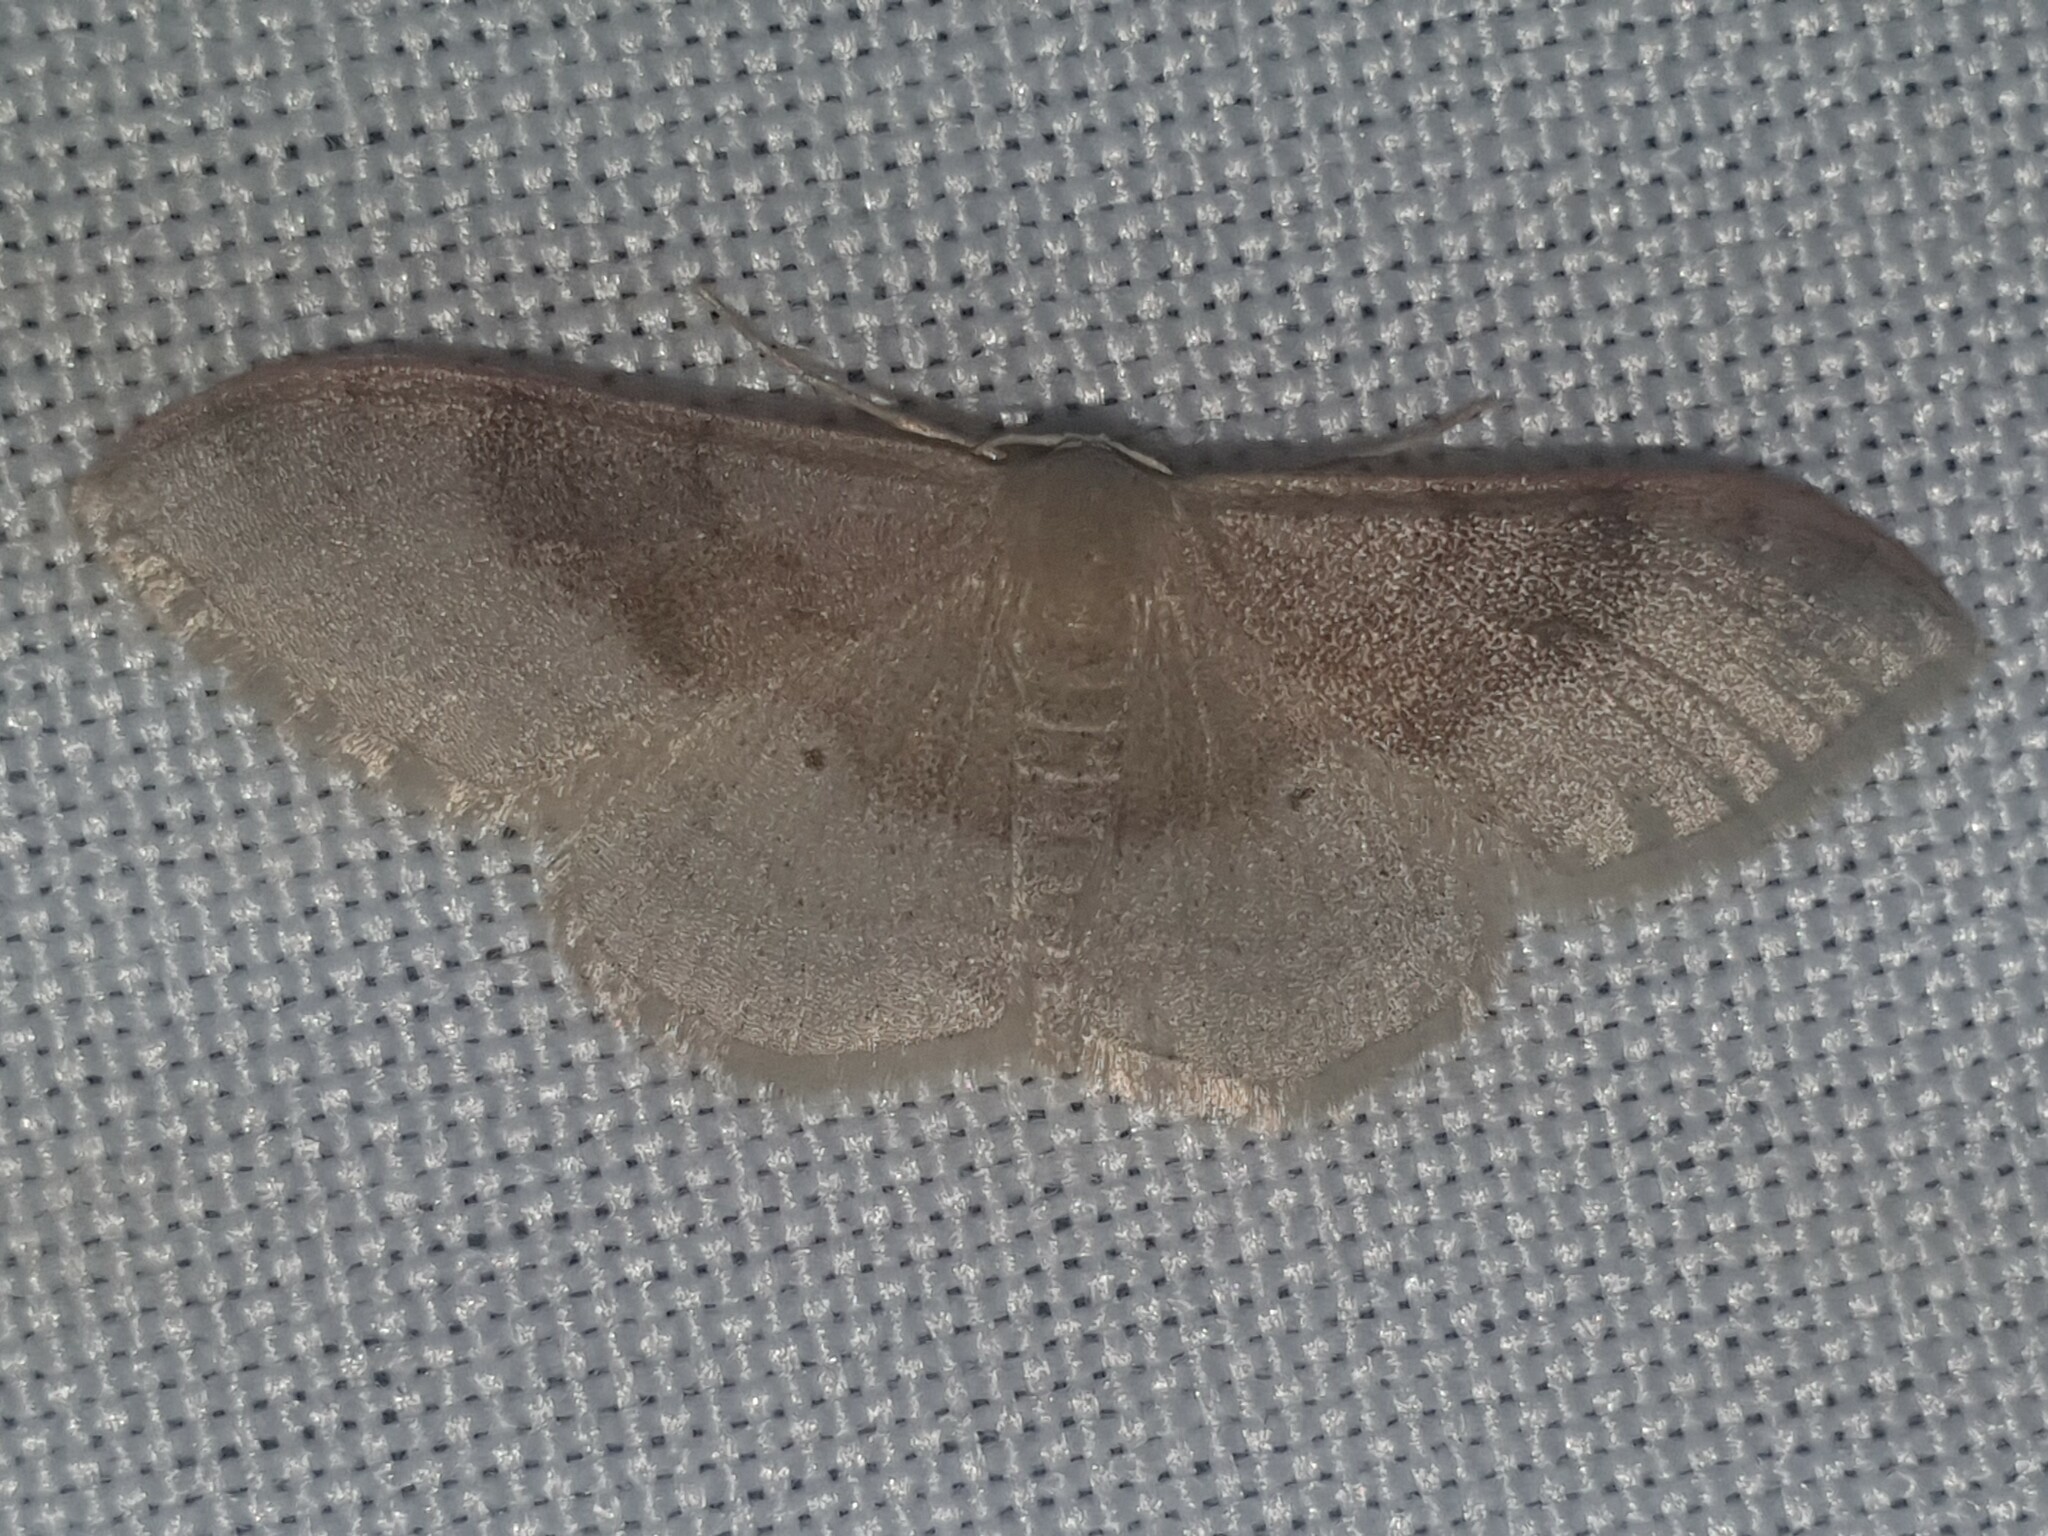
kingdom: Animalia
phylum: Arthropoda
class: Insecta
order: Lepidoptera
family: Geometridae
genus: Idaea
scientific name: Idaea degeneraria
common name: Portland ribbon wave
